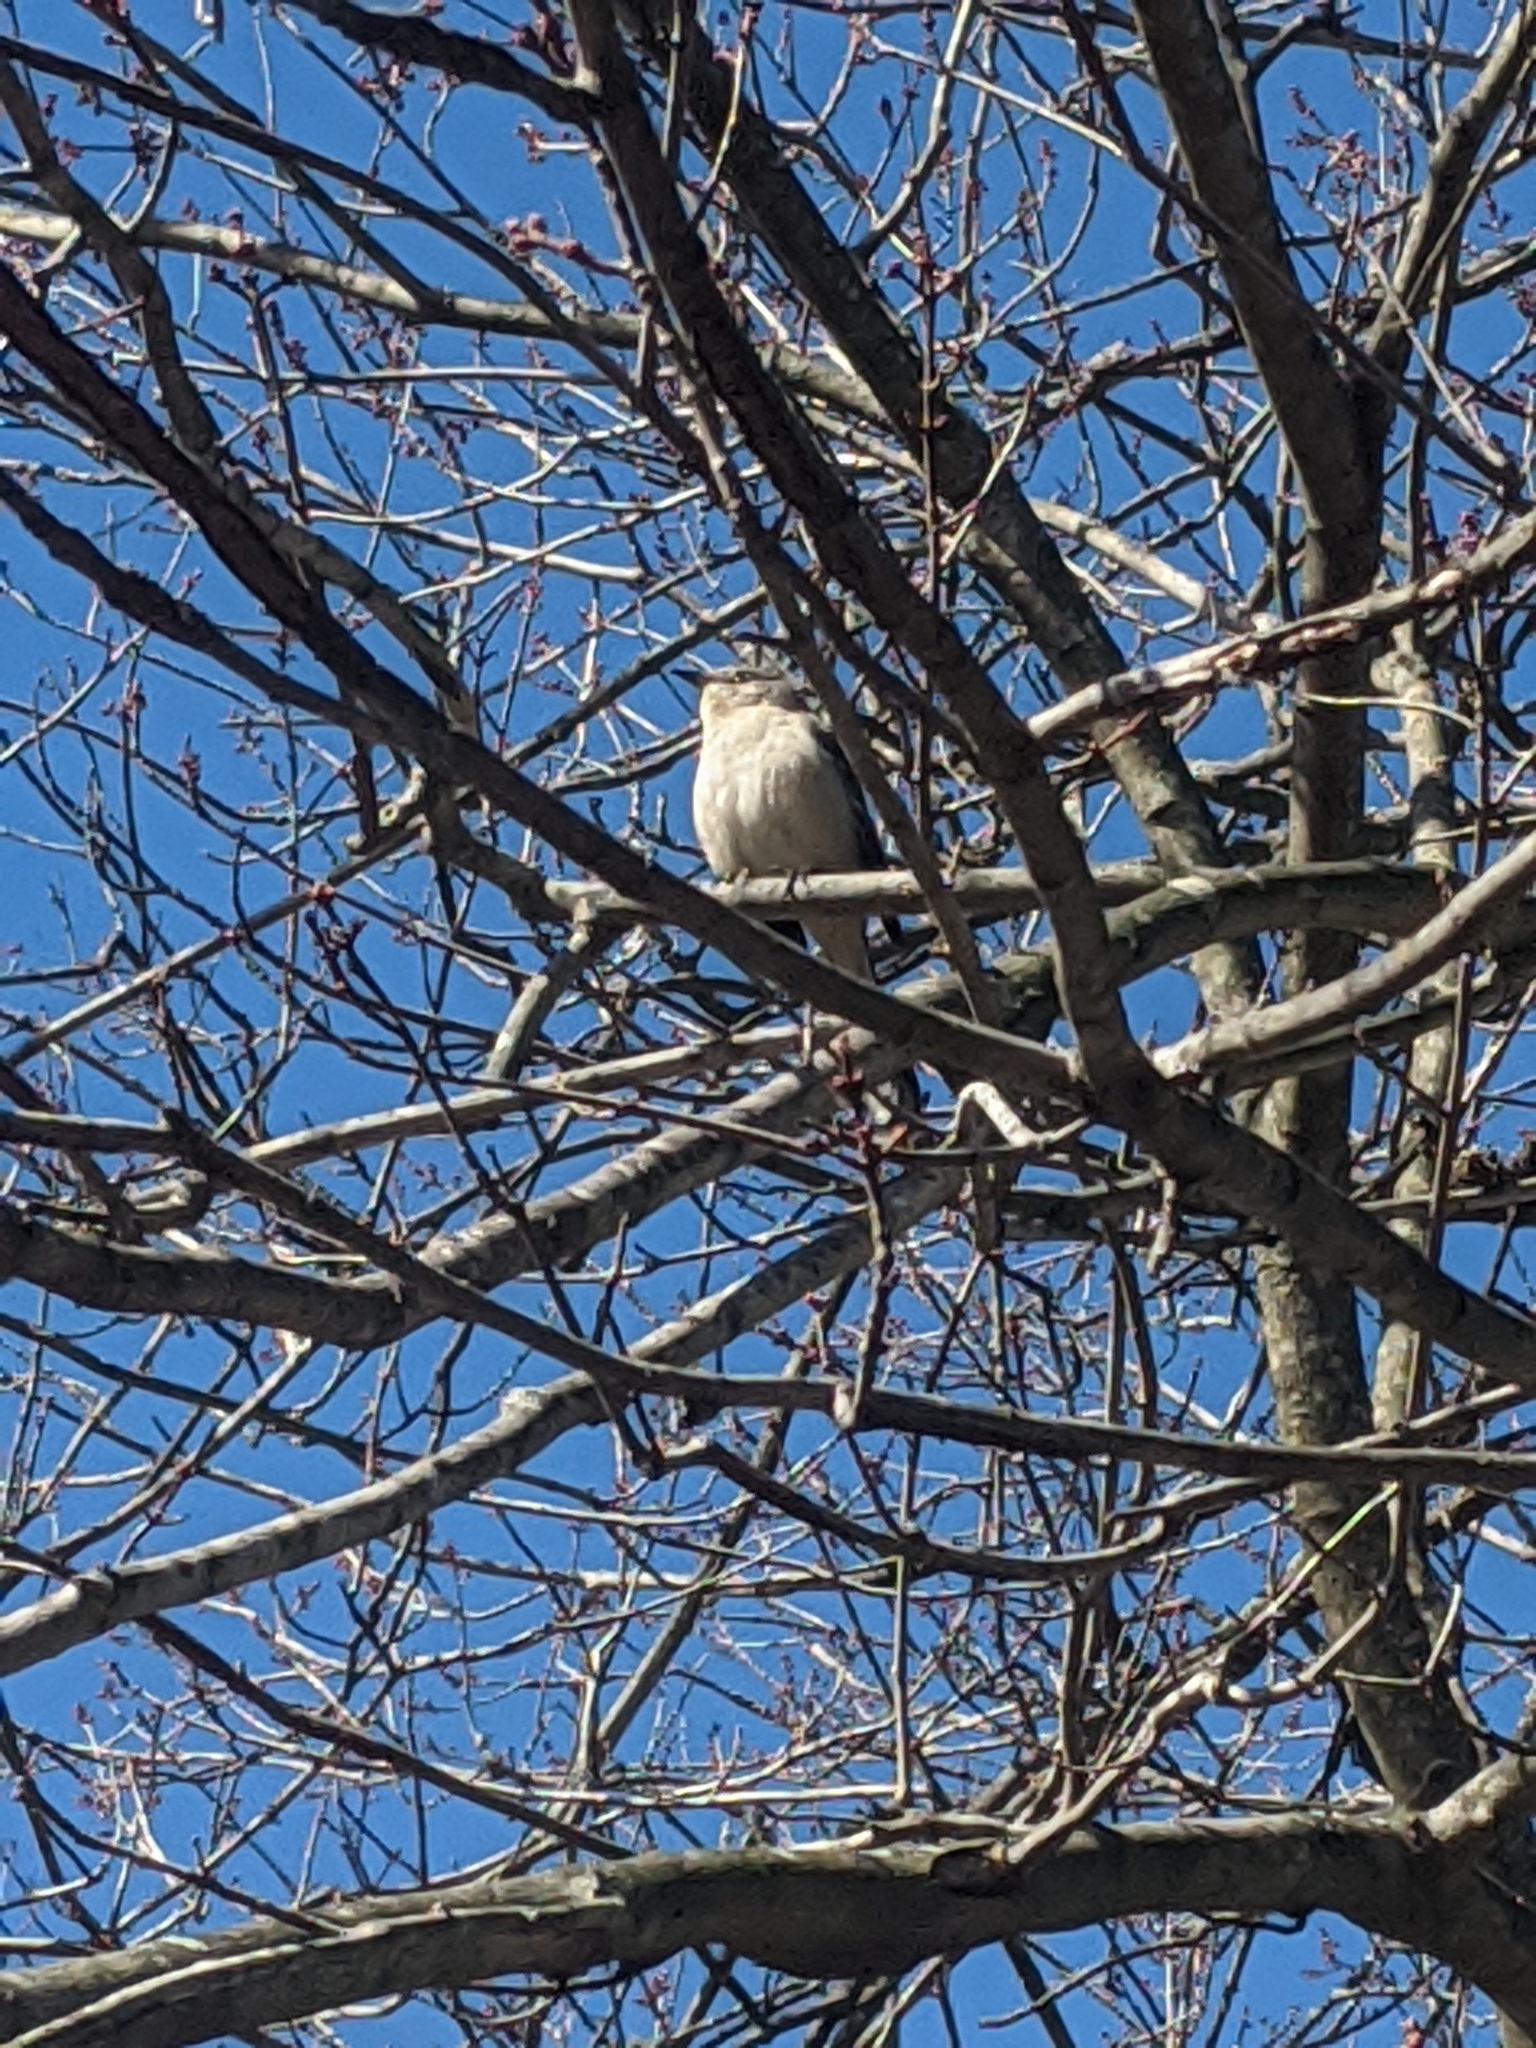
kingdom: Animalia
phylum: Chordata
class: Aves
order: Passeriformes
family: Mimidae
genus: Mimus
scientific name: Mimus polyglottos
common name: Northern mockingbird
